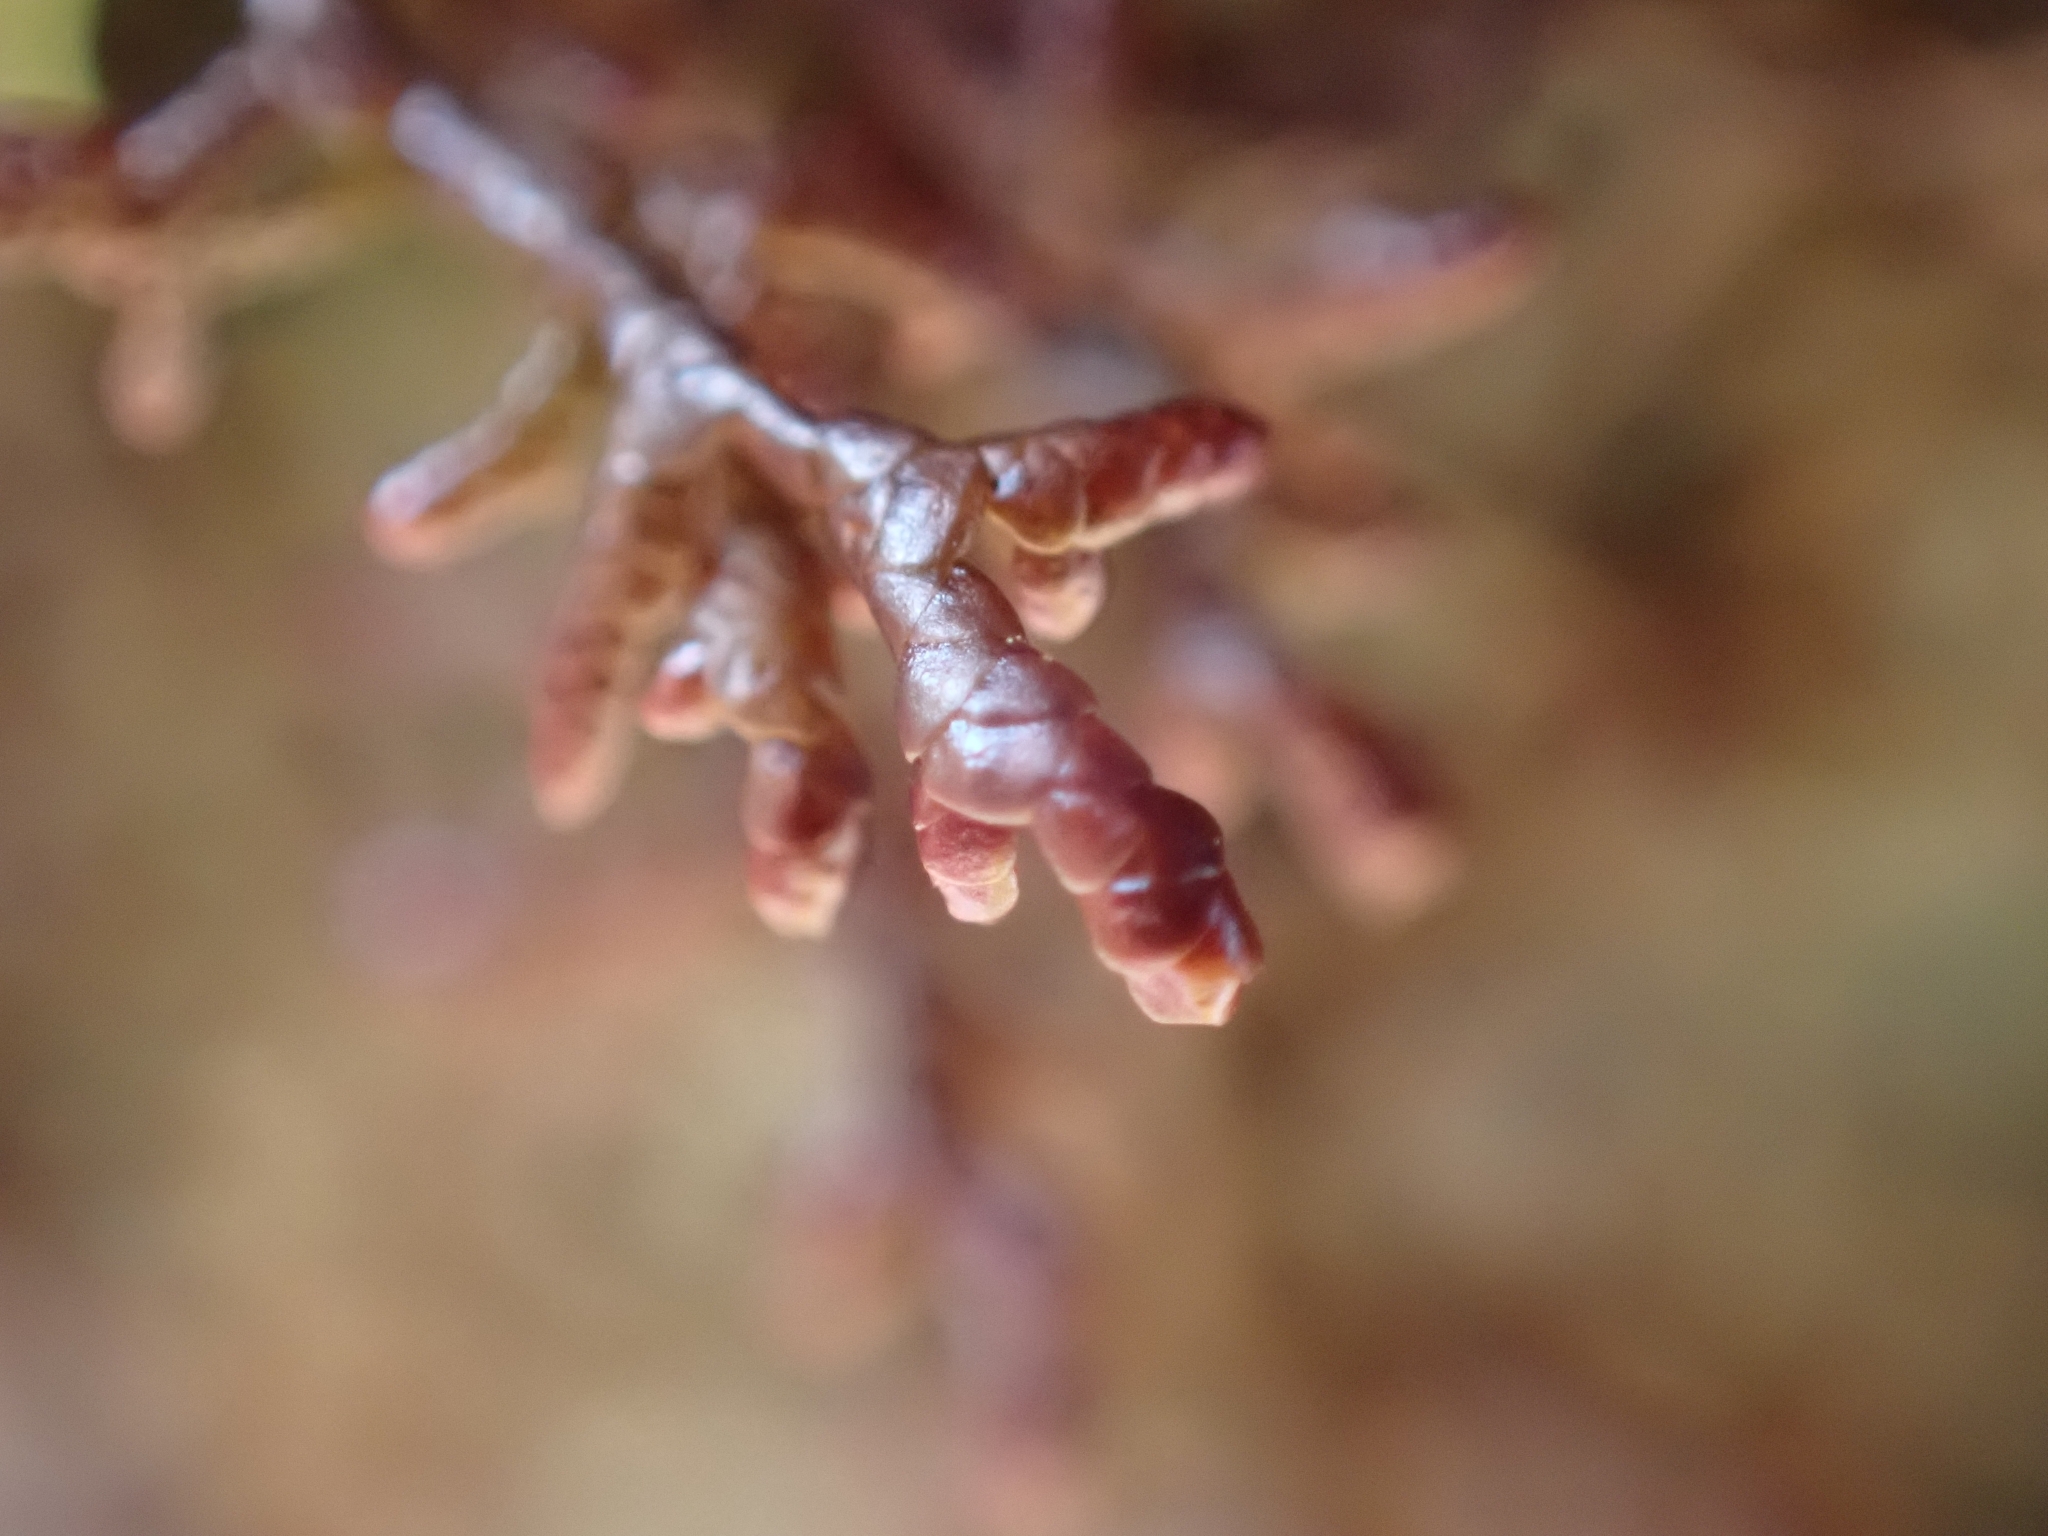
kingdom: Plantae
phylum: Marchantiophyta
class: Jungermanniopsida
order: Porellales
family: Frullaniaceae
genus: Frullania
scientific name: Frullania tamarisci
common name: Tamarisk scalewort
